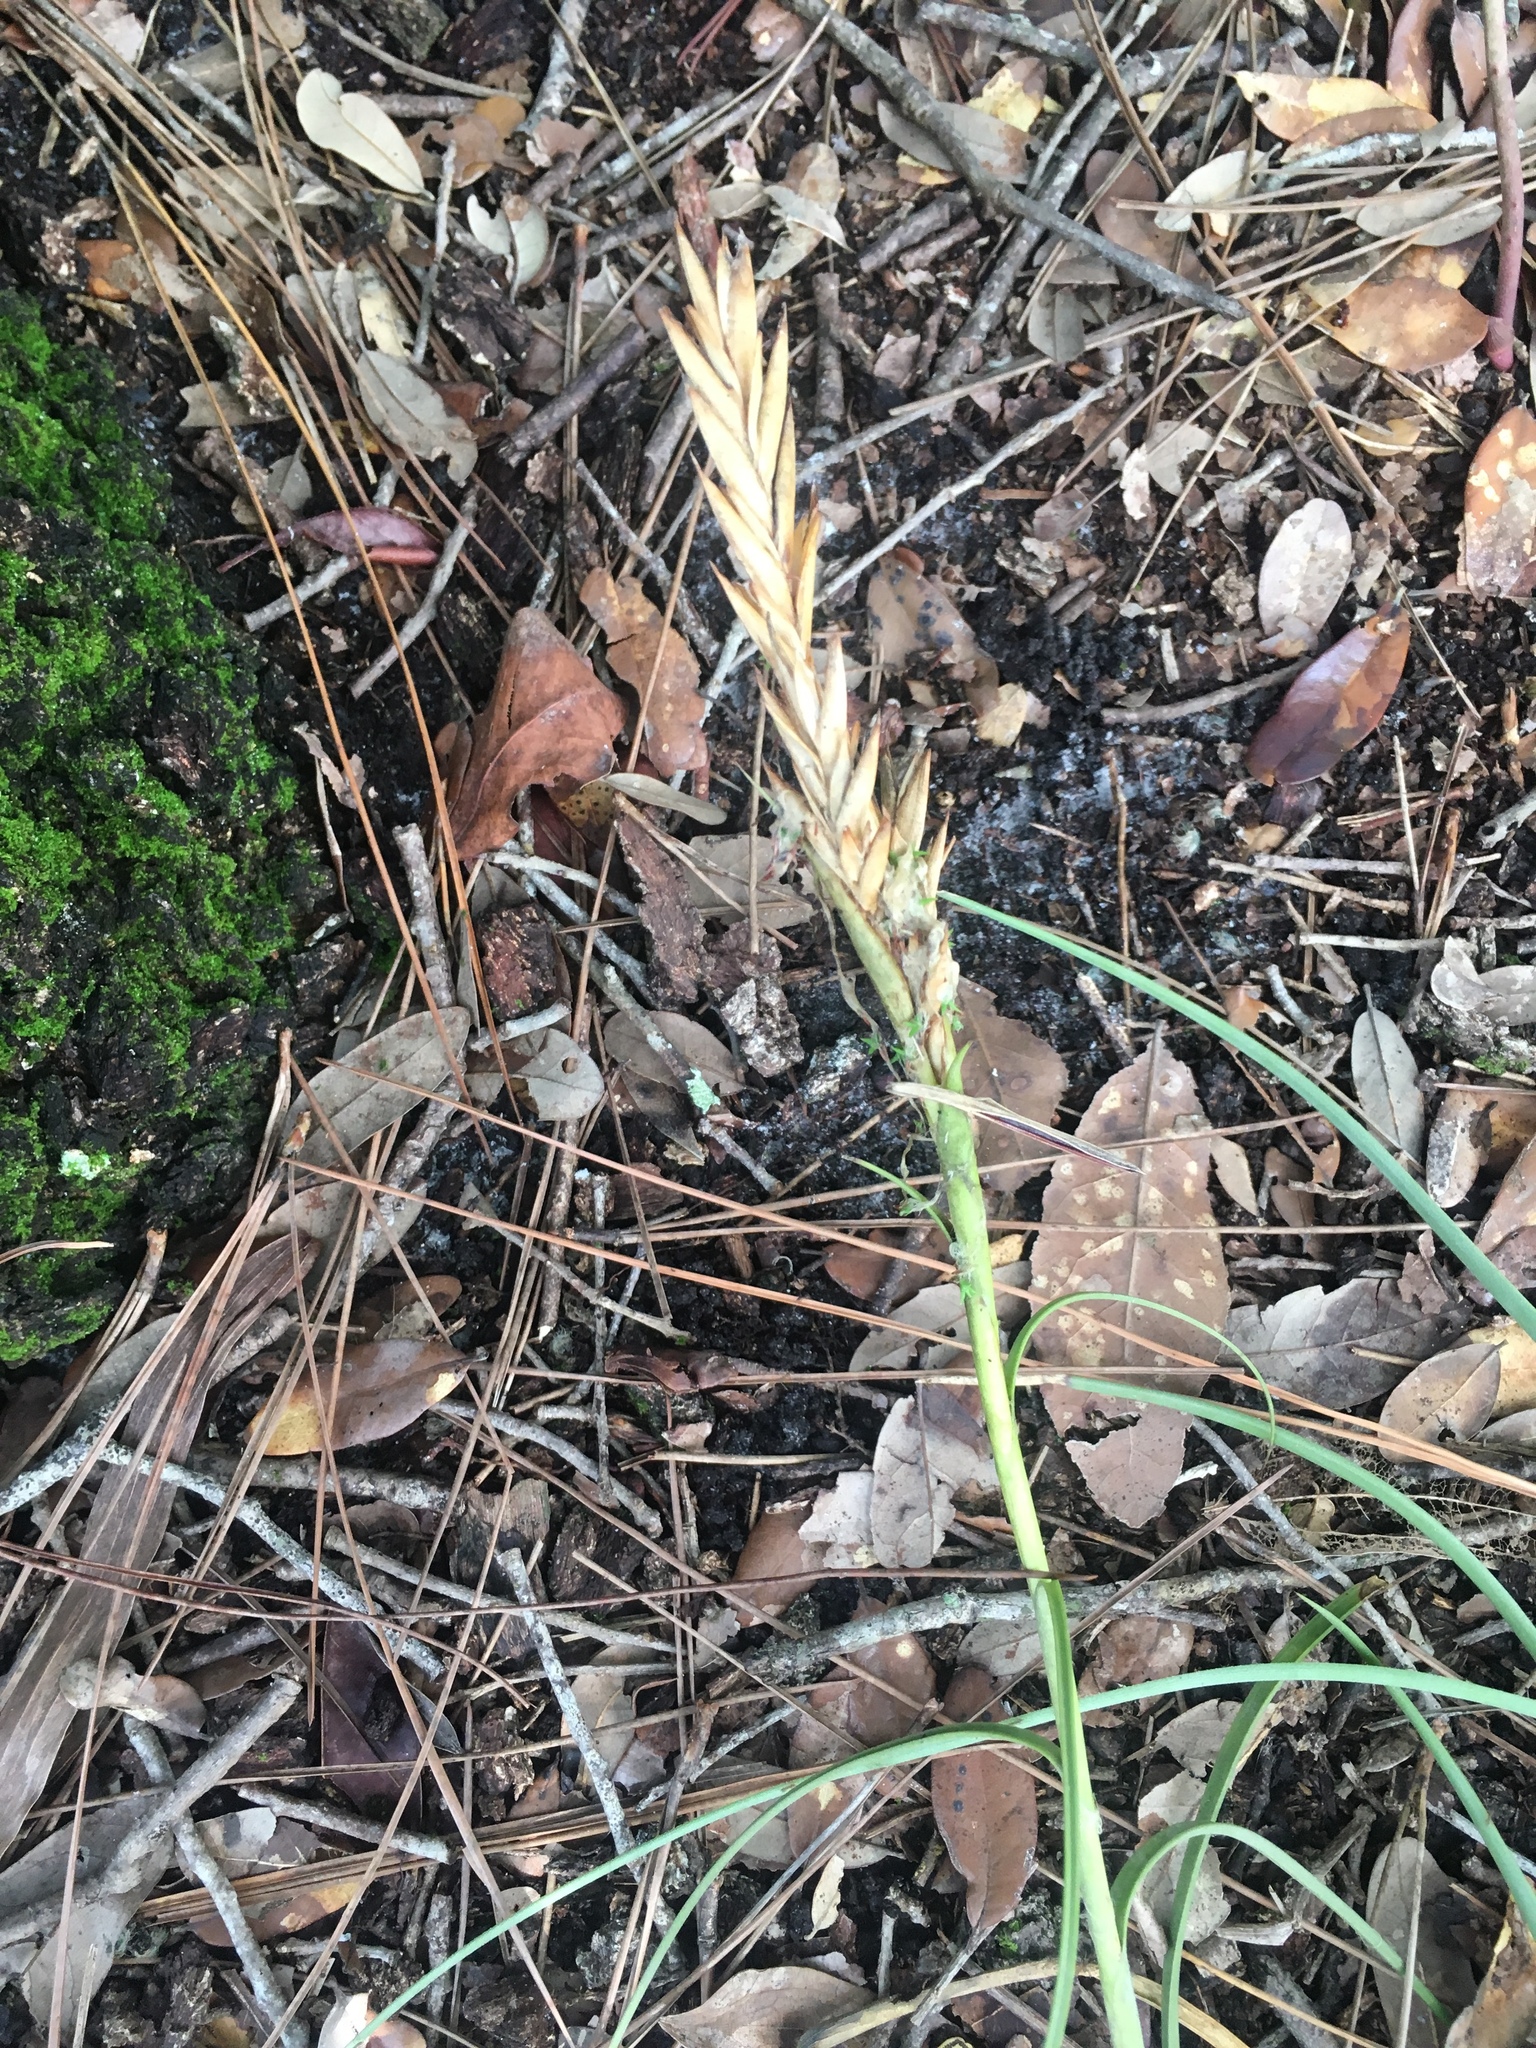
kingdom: Plantae
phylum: Tracheophyta
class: Liliopsida
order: Poales
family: Bromeliaceae
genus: Tillandsia
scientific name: Tillandsia balbisiana
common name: Northern needleleaf
